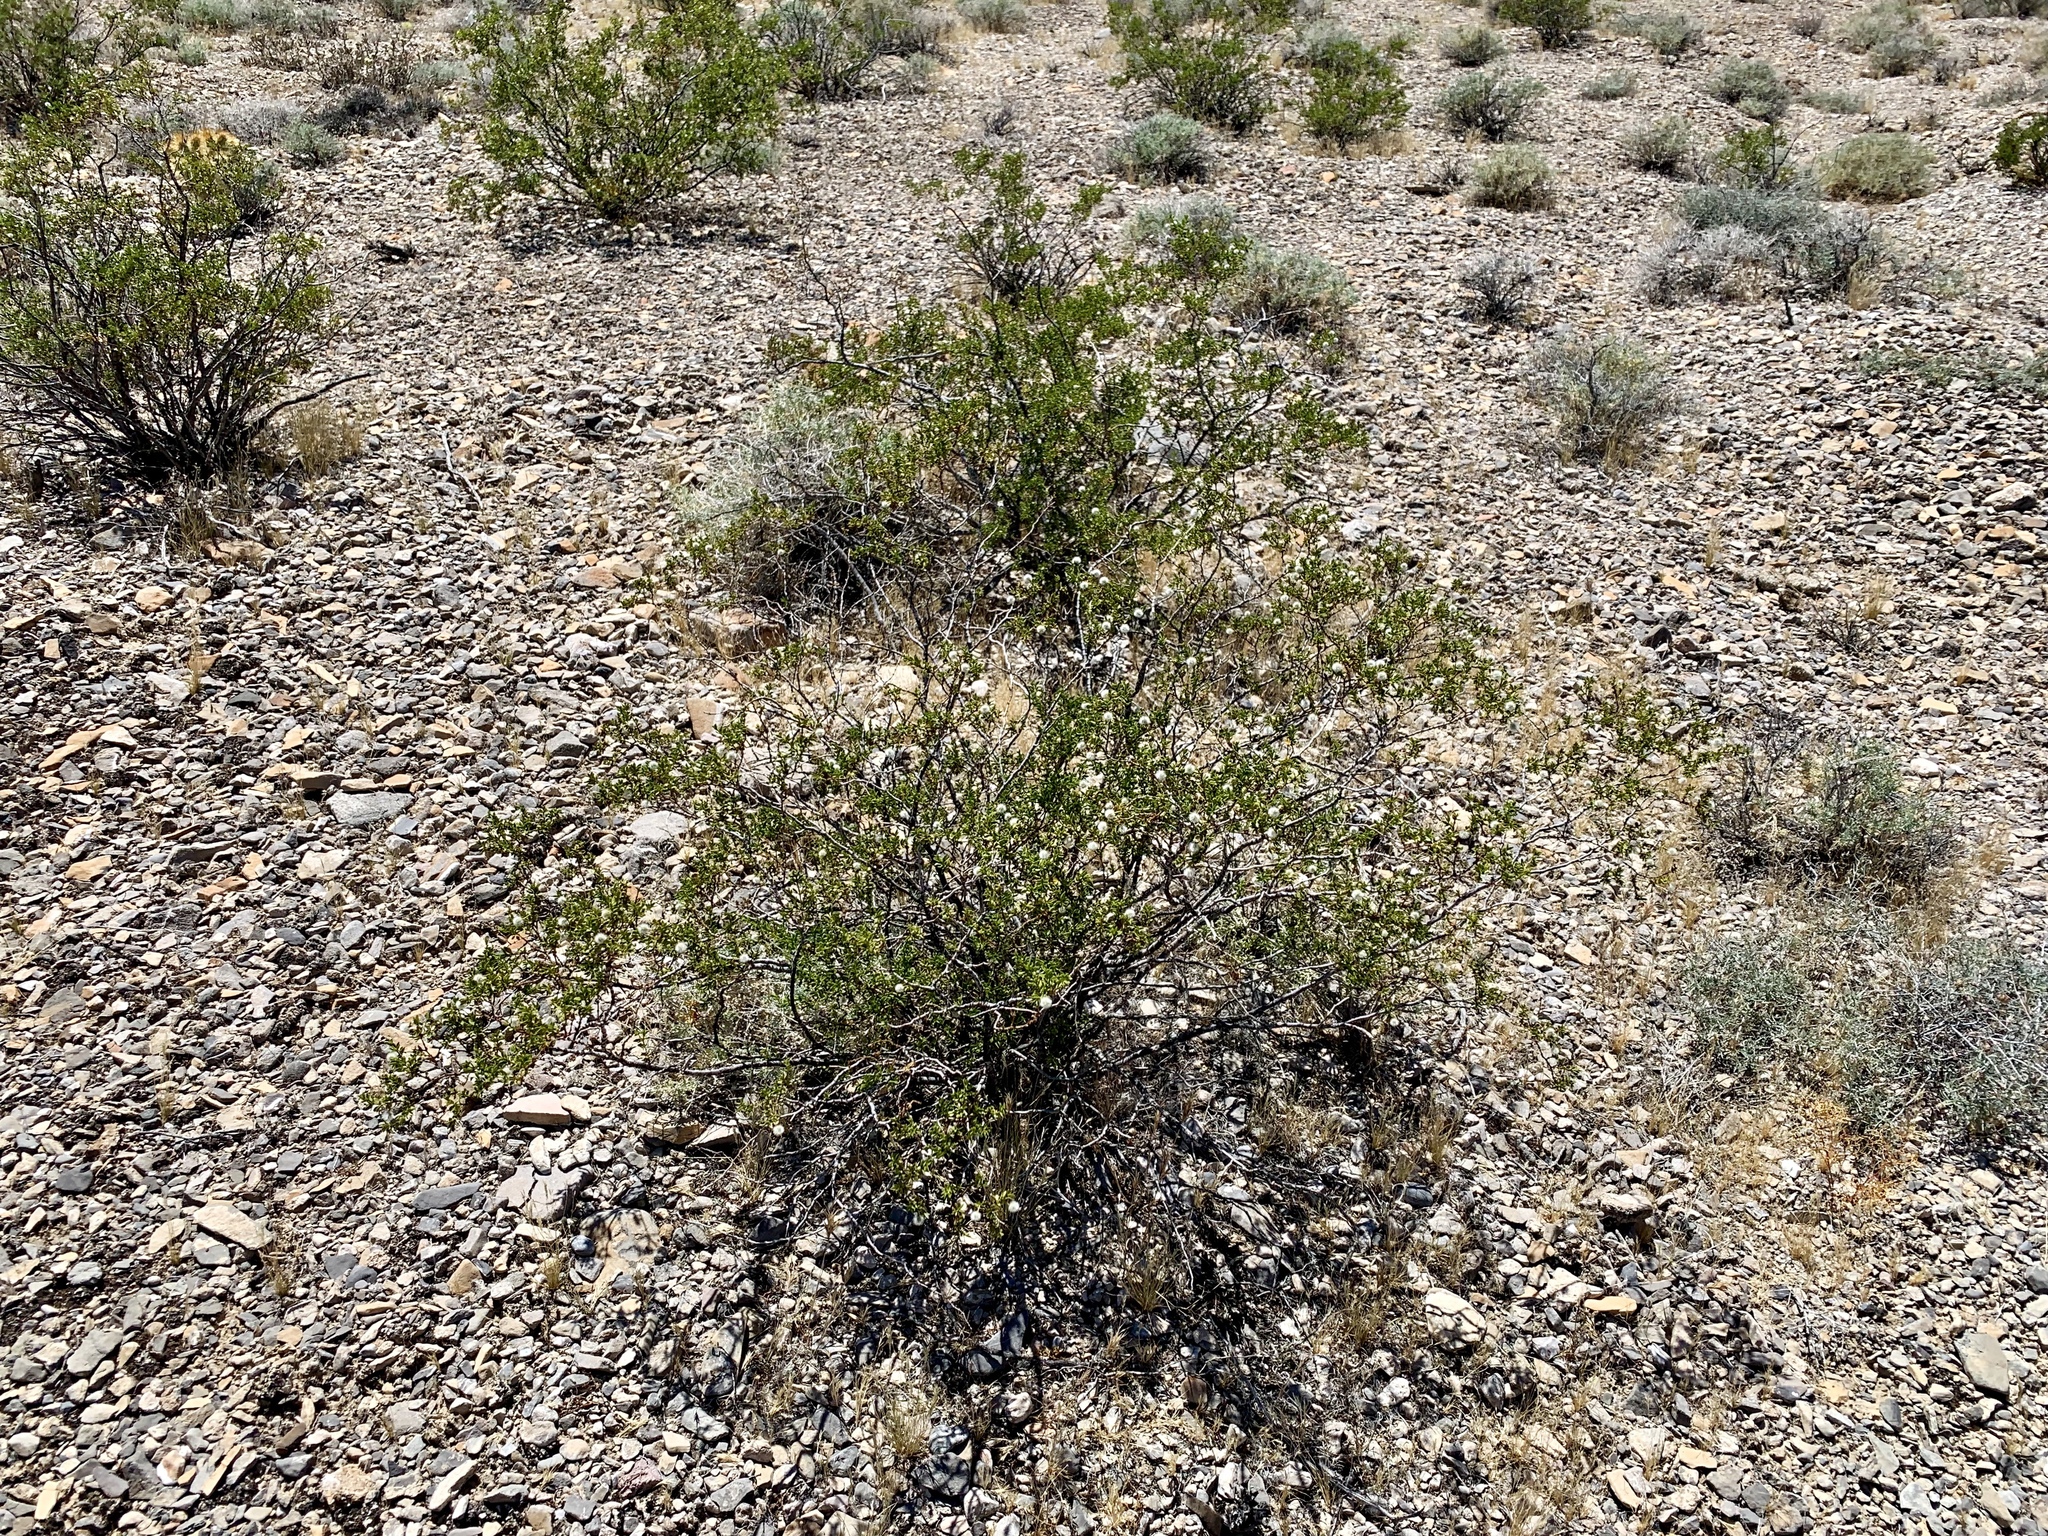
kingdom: Plantae
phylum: Tracheophyta
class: Magnoliopsida
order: Zygophyllales
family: Zygophyllaceae
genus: Larrea
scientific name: Larrea tridentata
